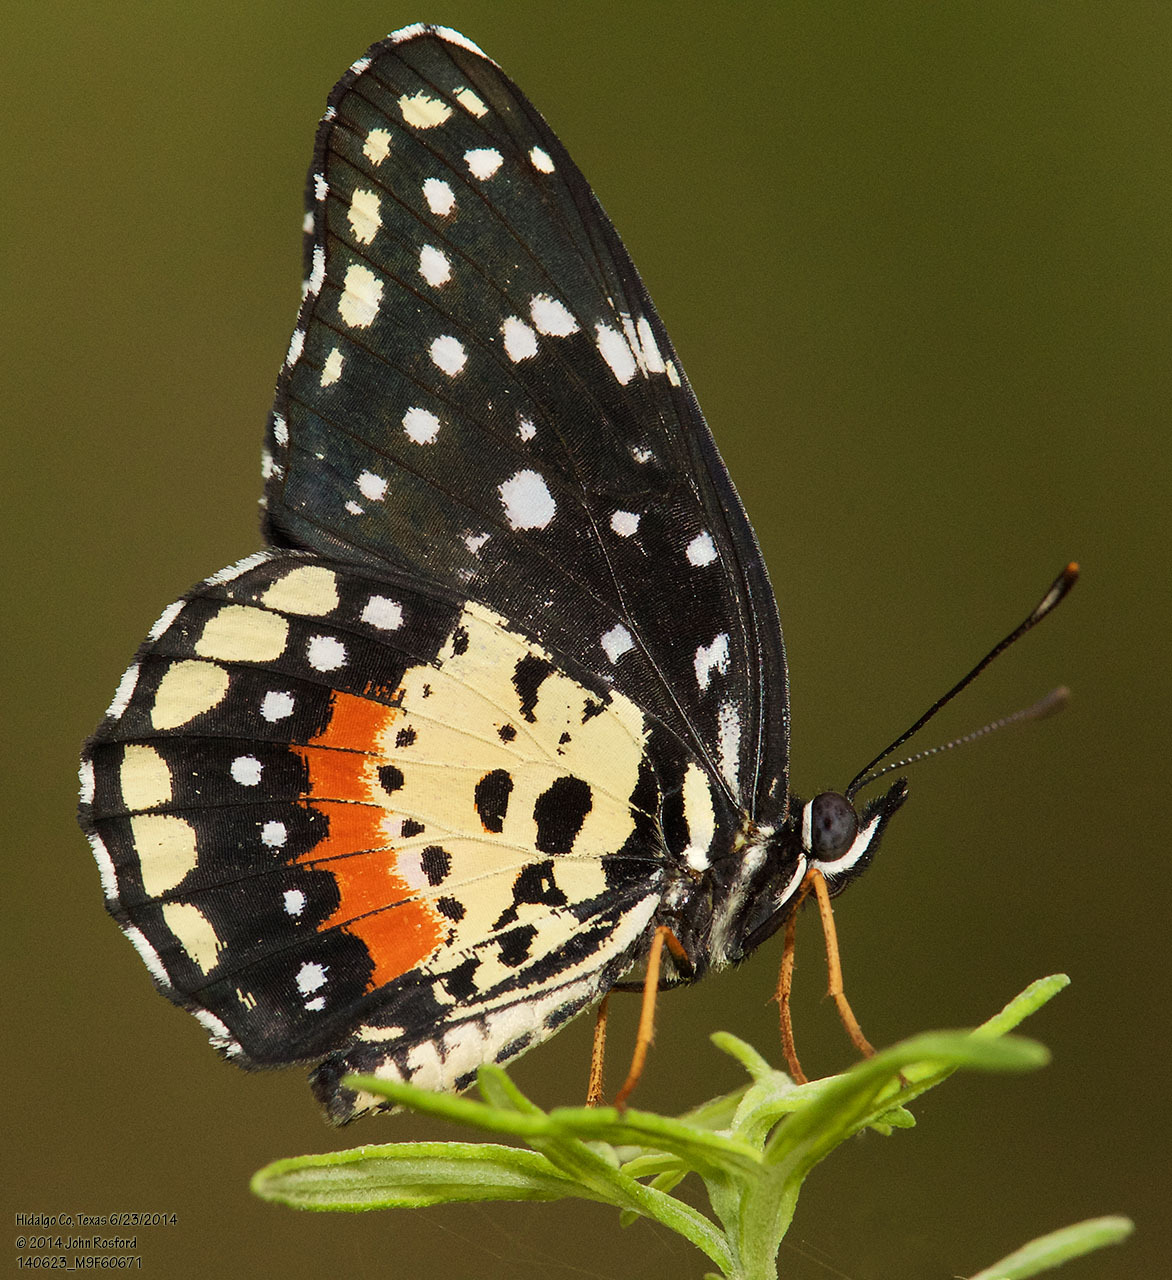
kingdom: Animalia
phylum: Arthropoda
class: Insecta
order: Lepidoptera
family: Nymphalidae
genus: Chlosyne
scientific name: Chlosyne janais
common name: Crimson patch
